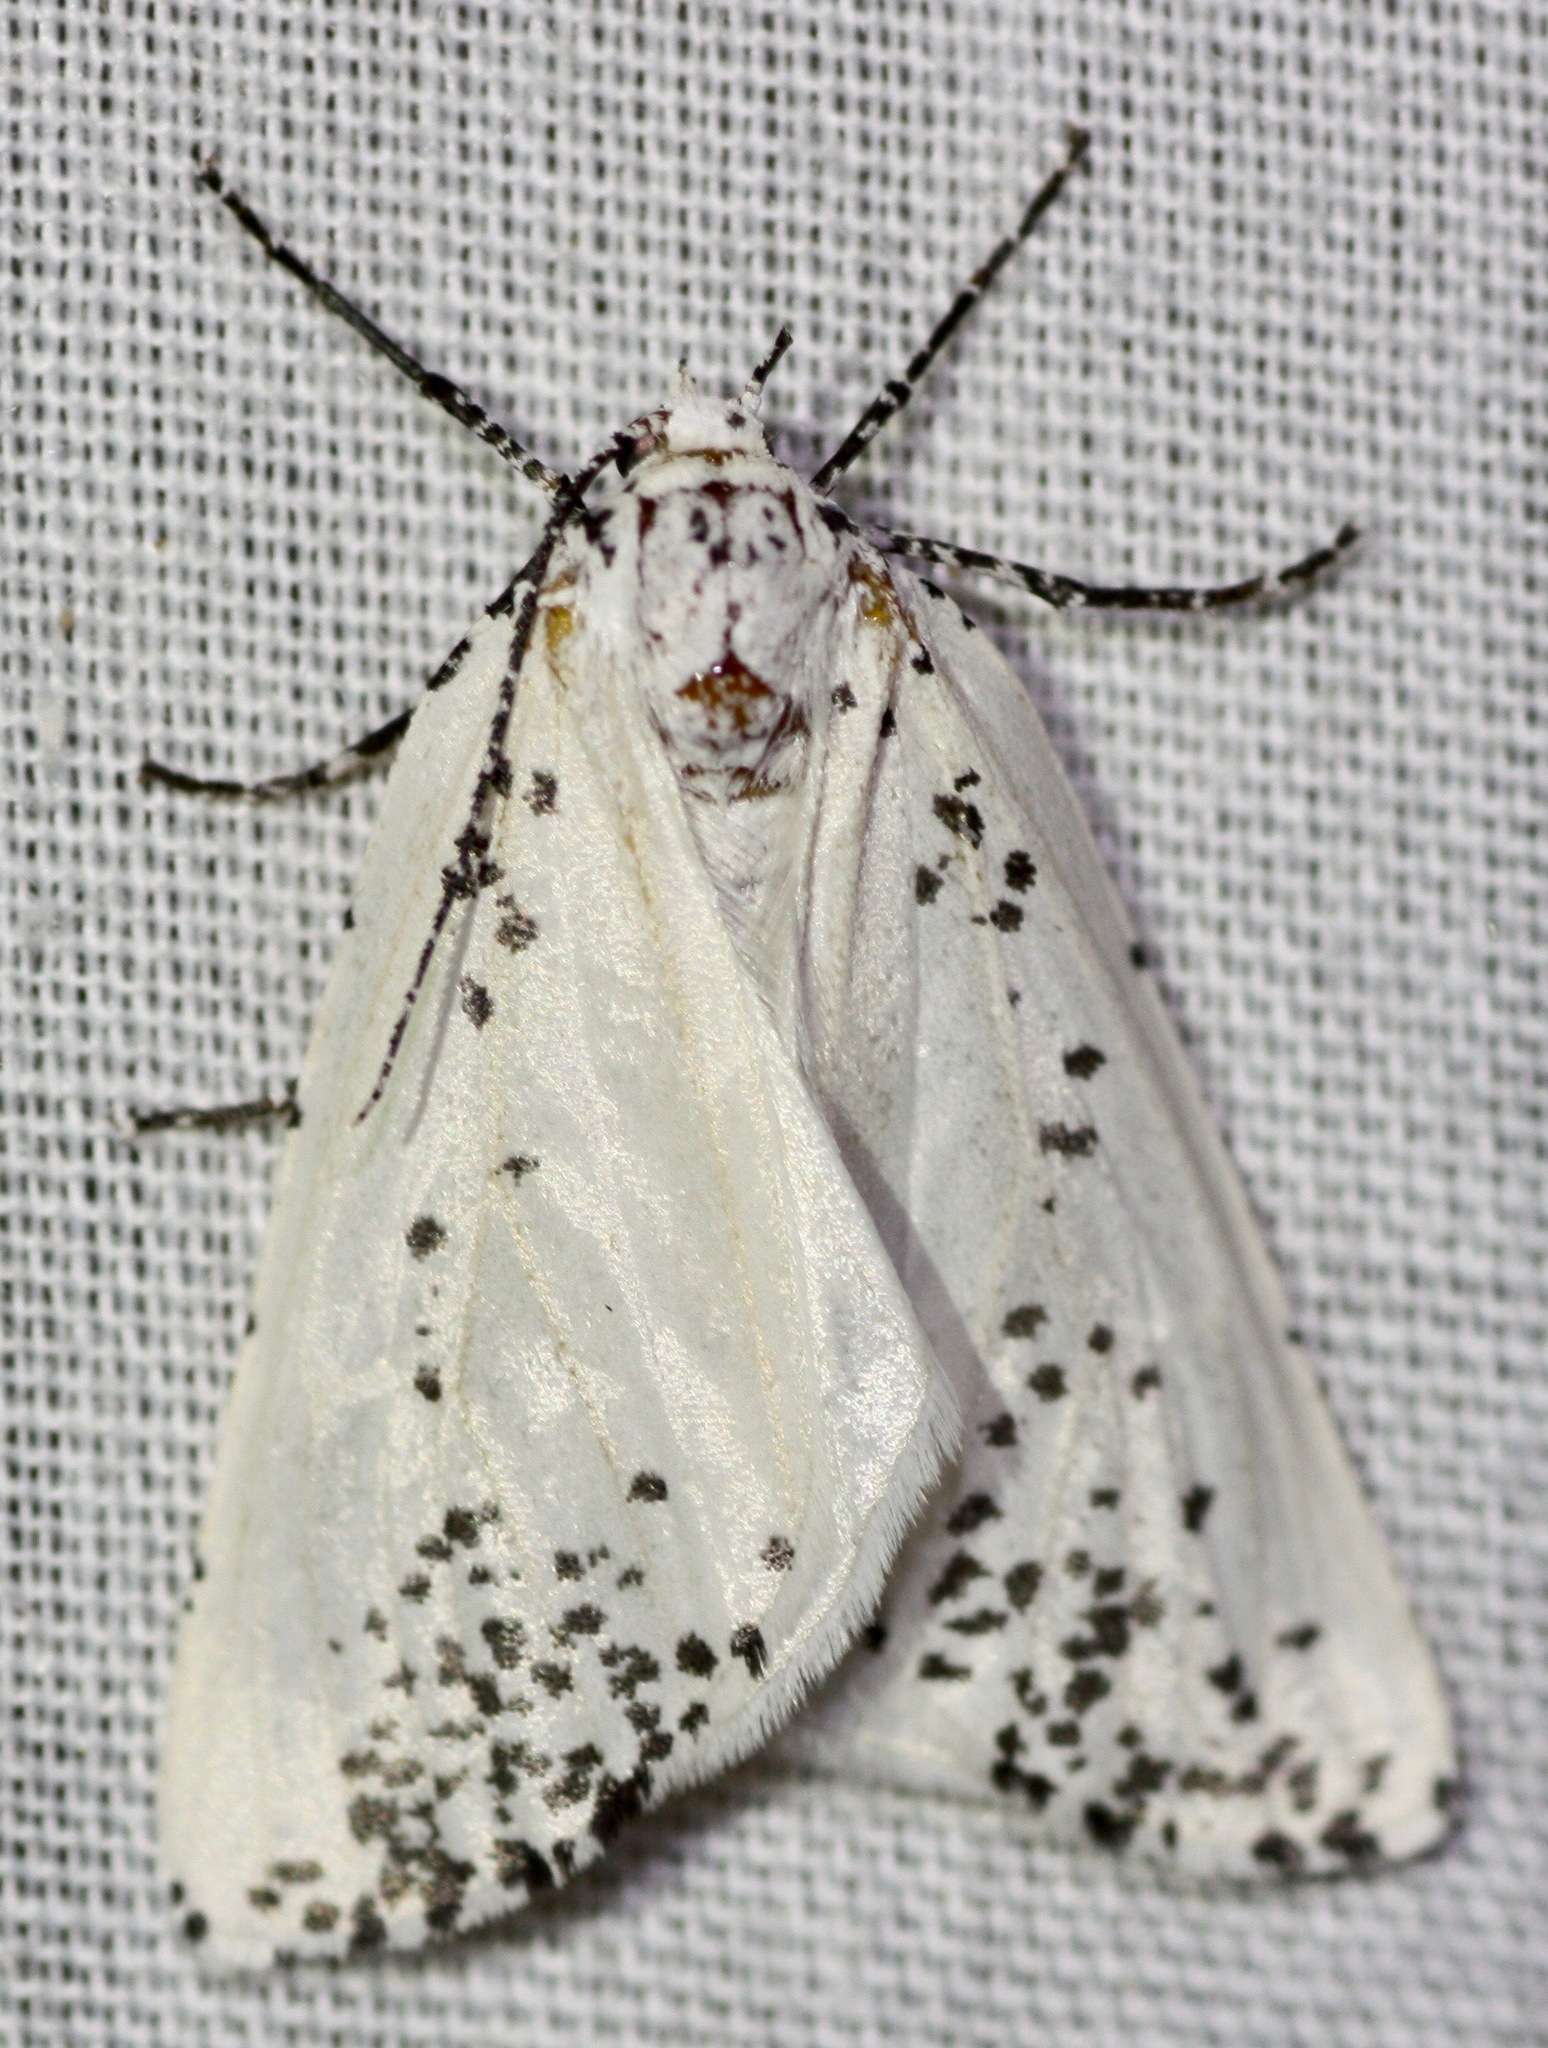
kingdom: Animalia
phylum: Arthropoda
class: Insecta
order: Lepidoptera
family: Geometridae
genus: Eucaterva
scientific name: Eucaterva variaria
